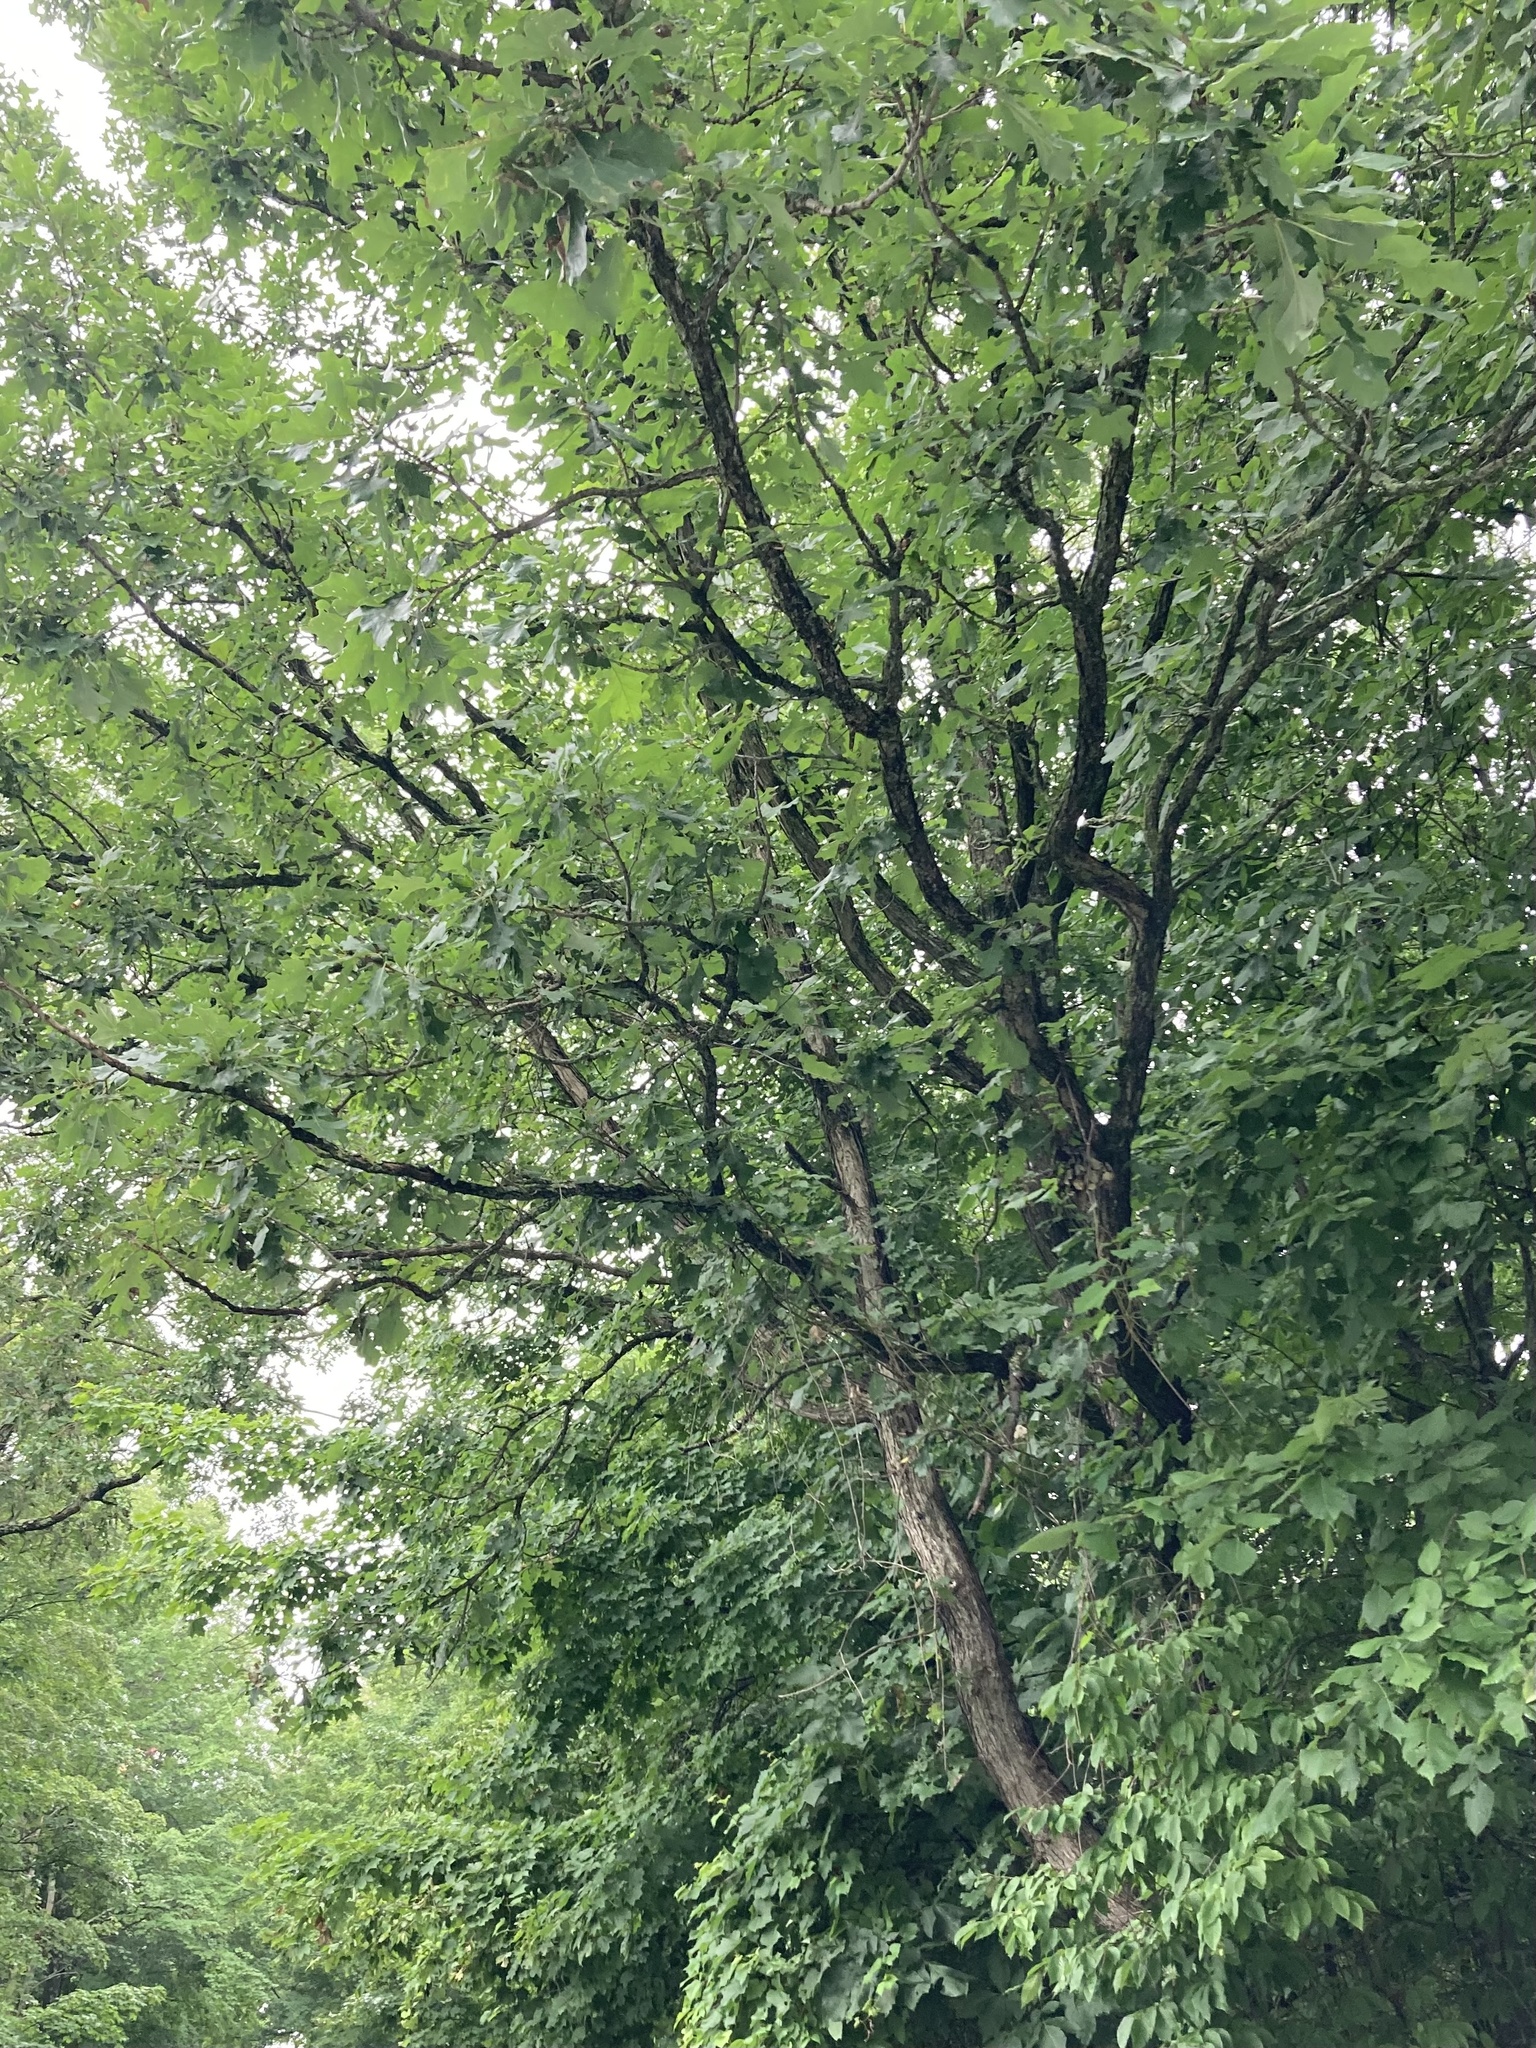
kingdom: Plantae
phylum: Tracheophyta
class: Magnoliopsida
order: Fagales
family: Fagaceae
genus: Quercus
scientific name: Quercus macrocarpa
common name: Bur oak
